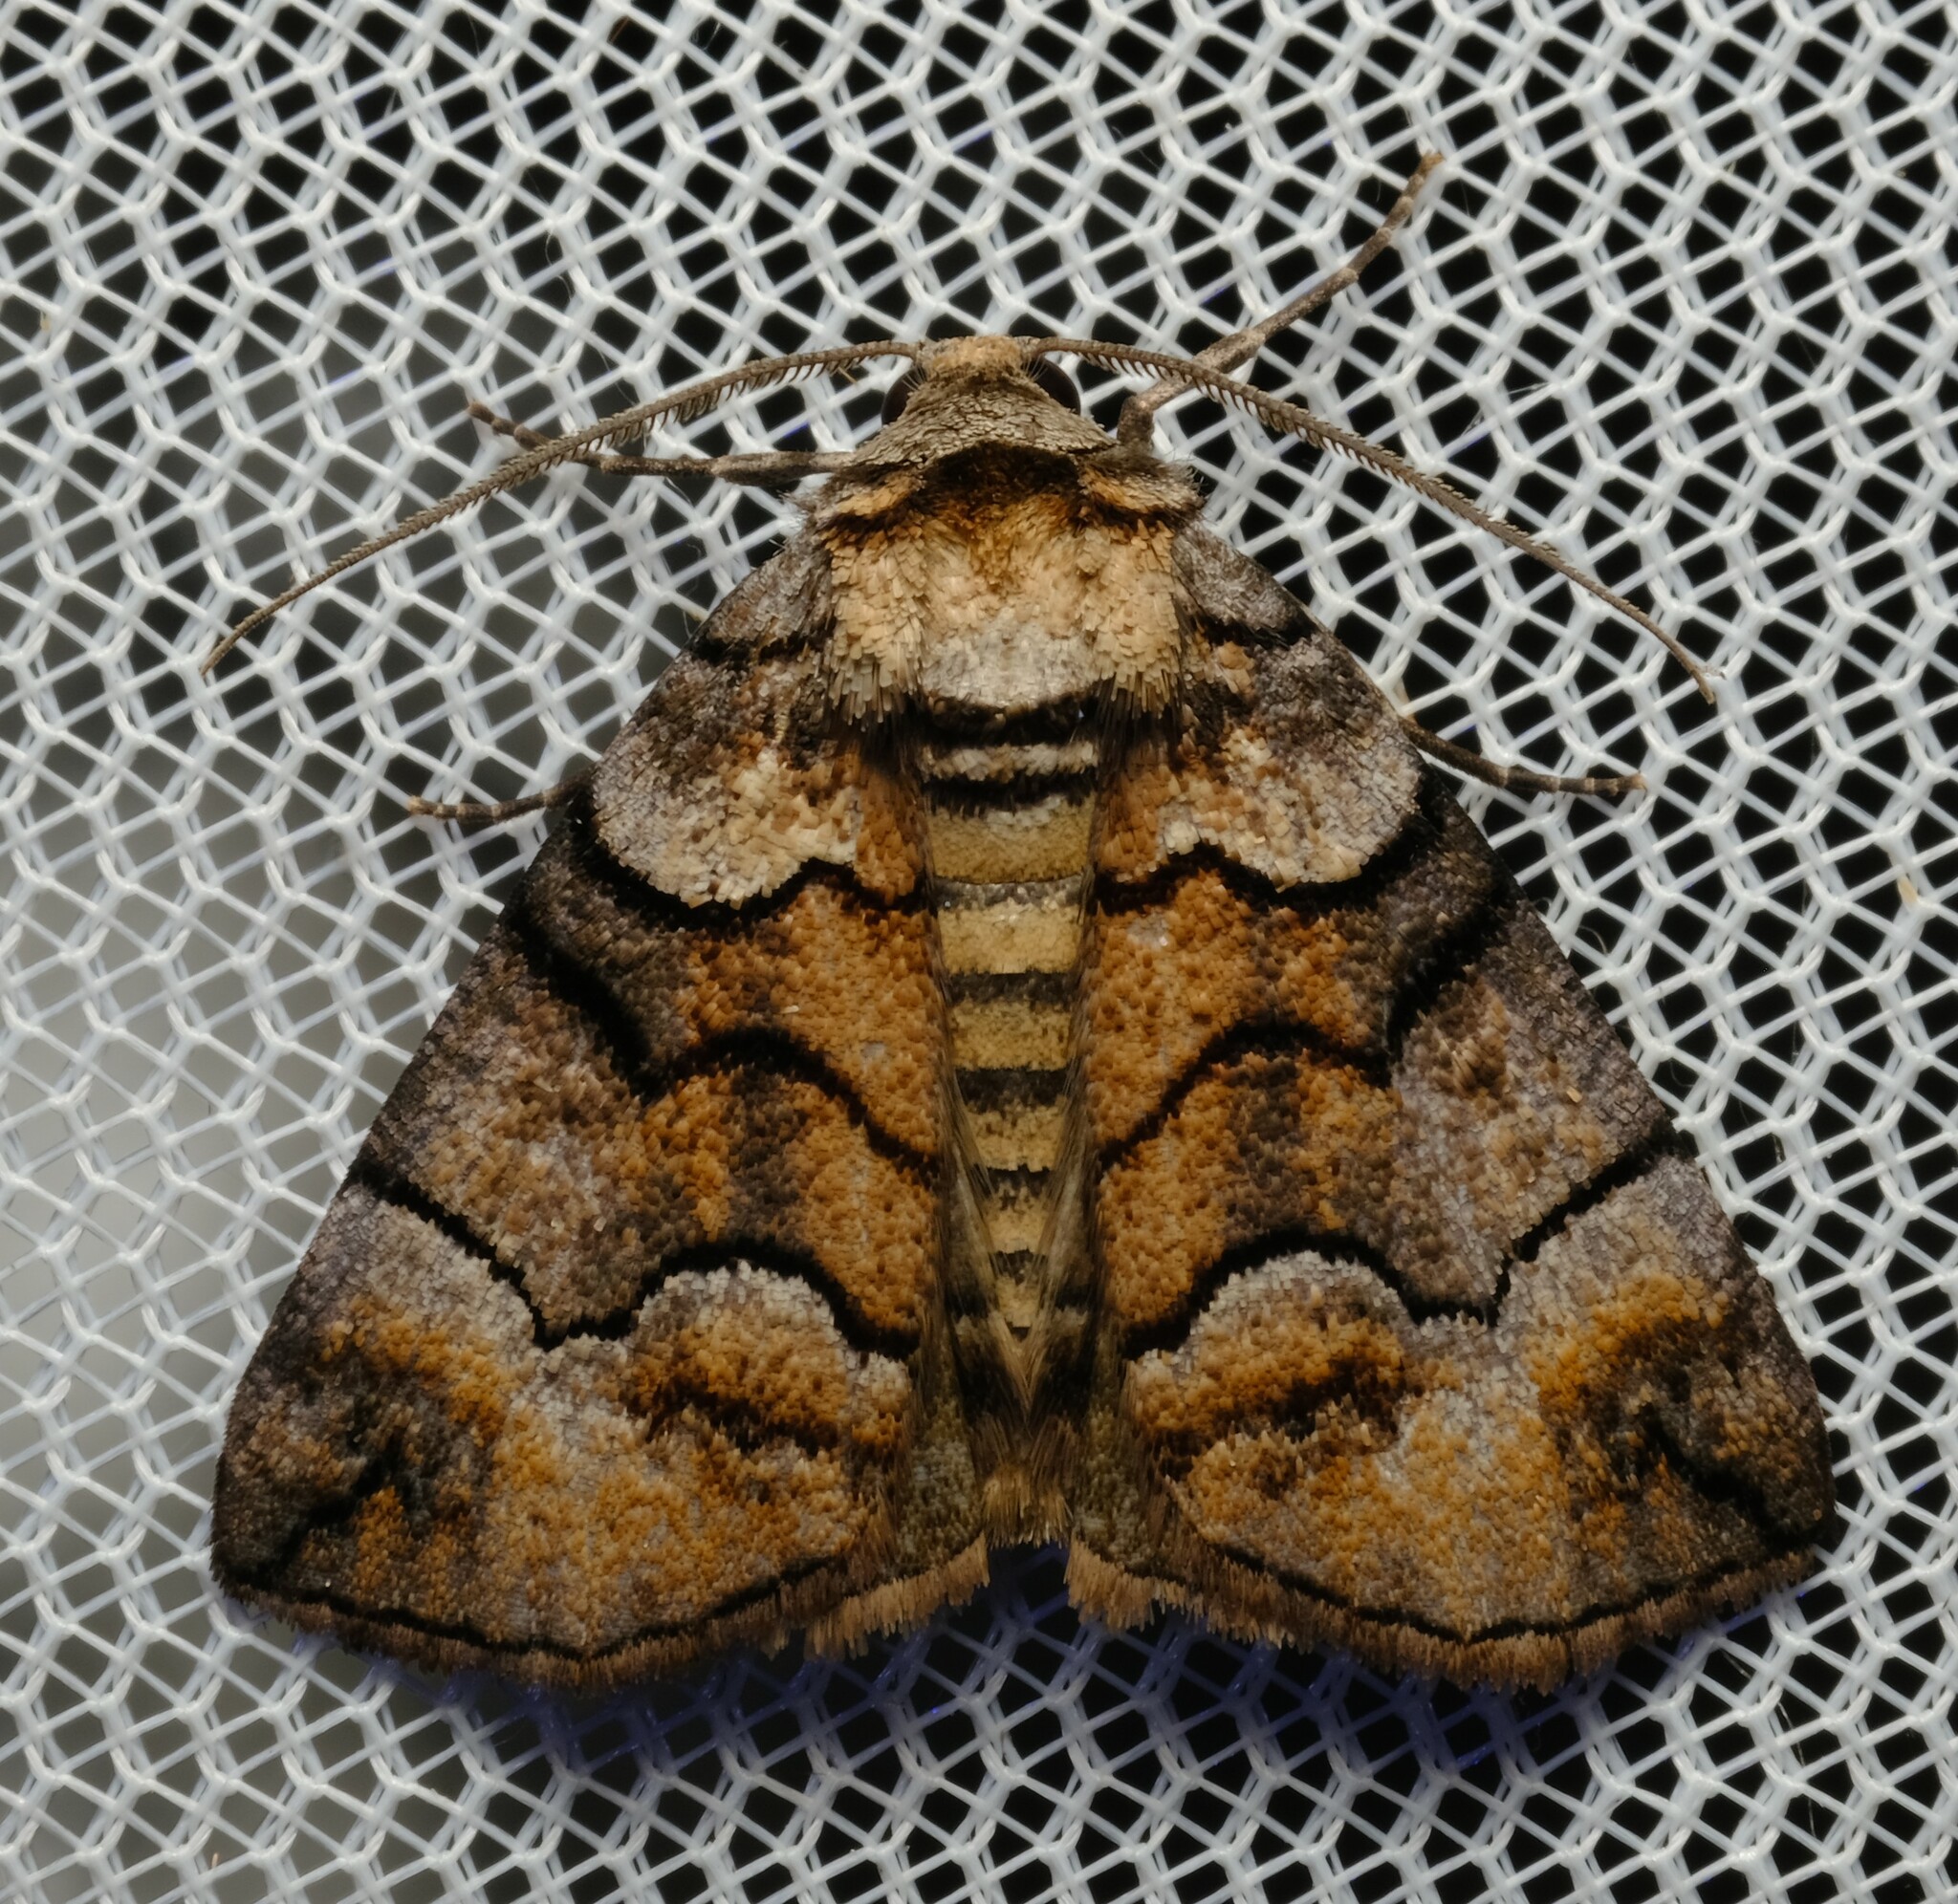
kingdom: Animalia
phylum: Arthropoda
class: Insecta
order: Lepidoptera
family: Geometridae
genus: Dysbatus
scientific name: Dysbatus singularis
